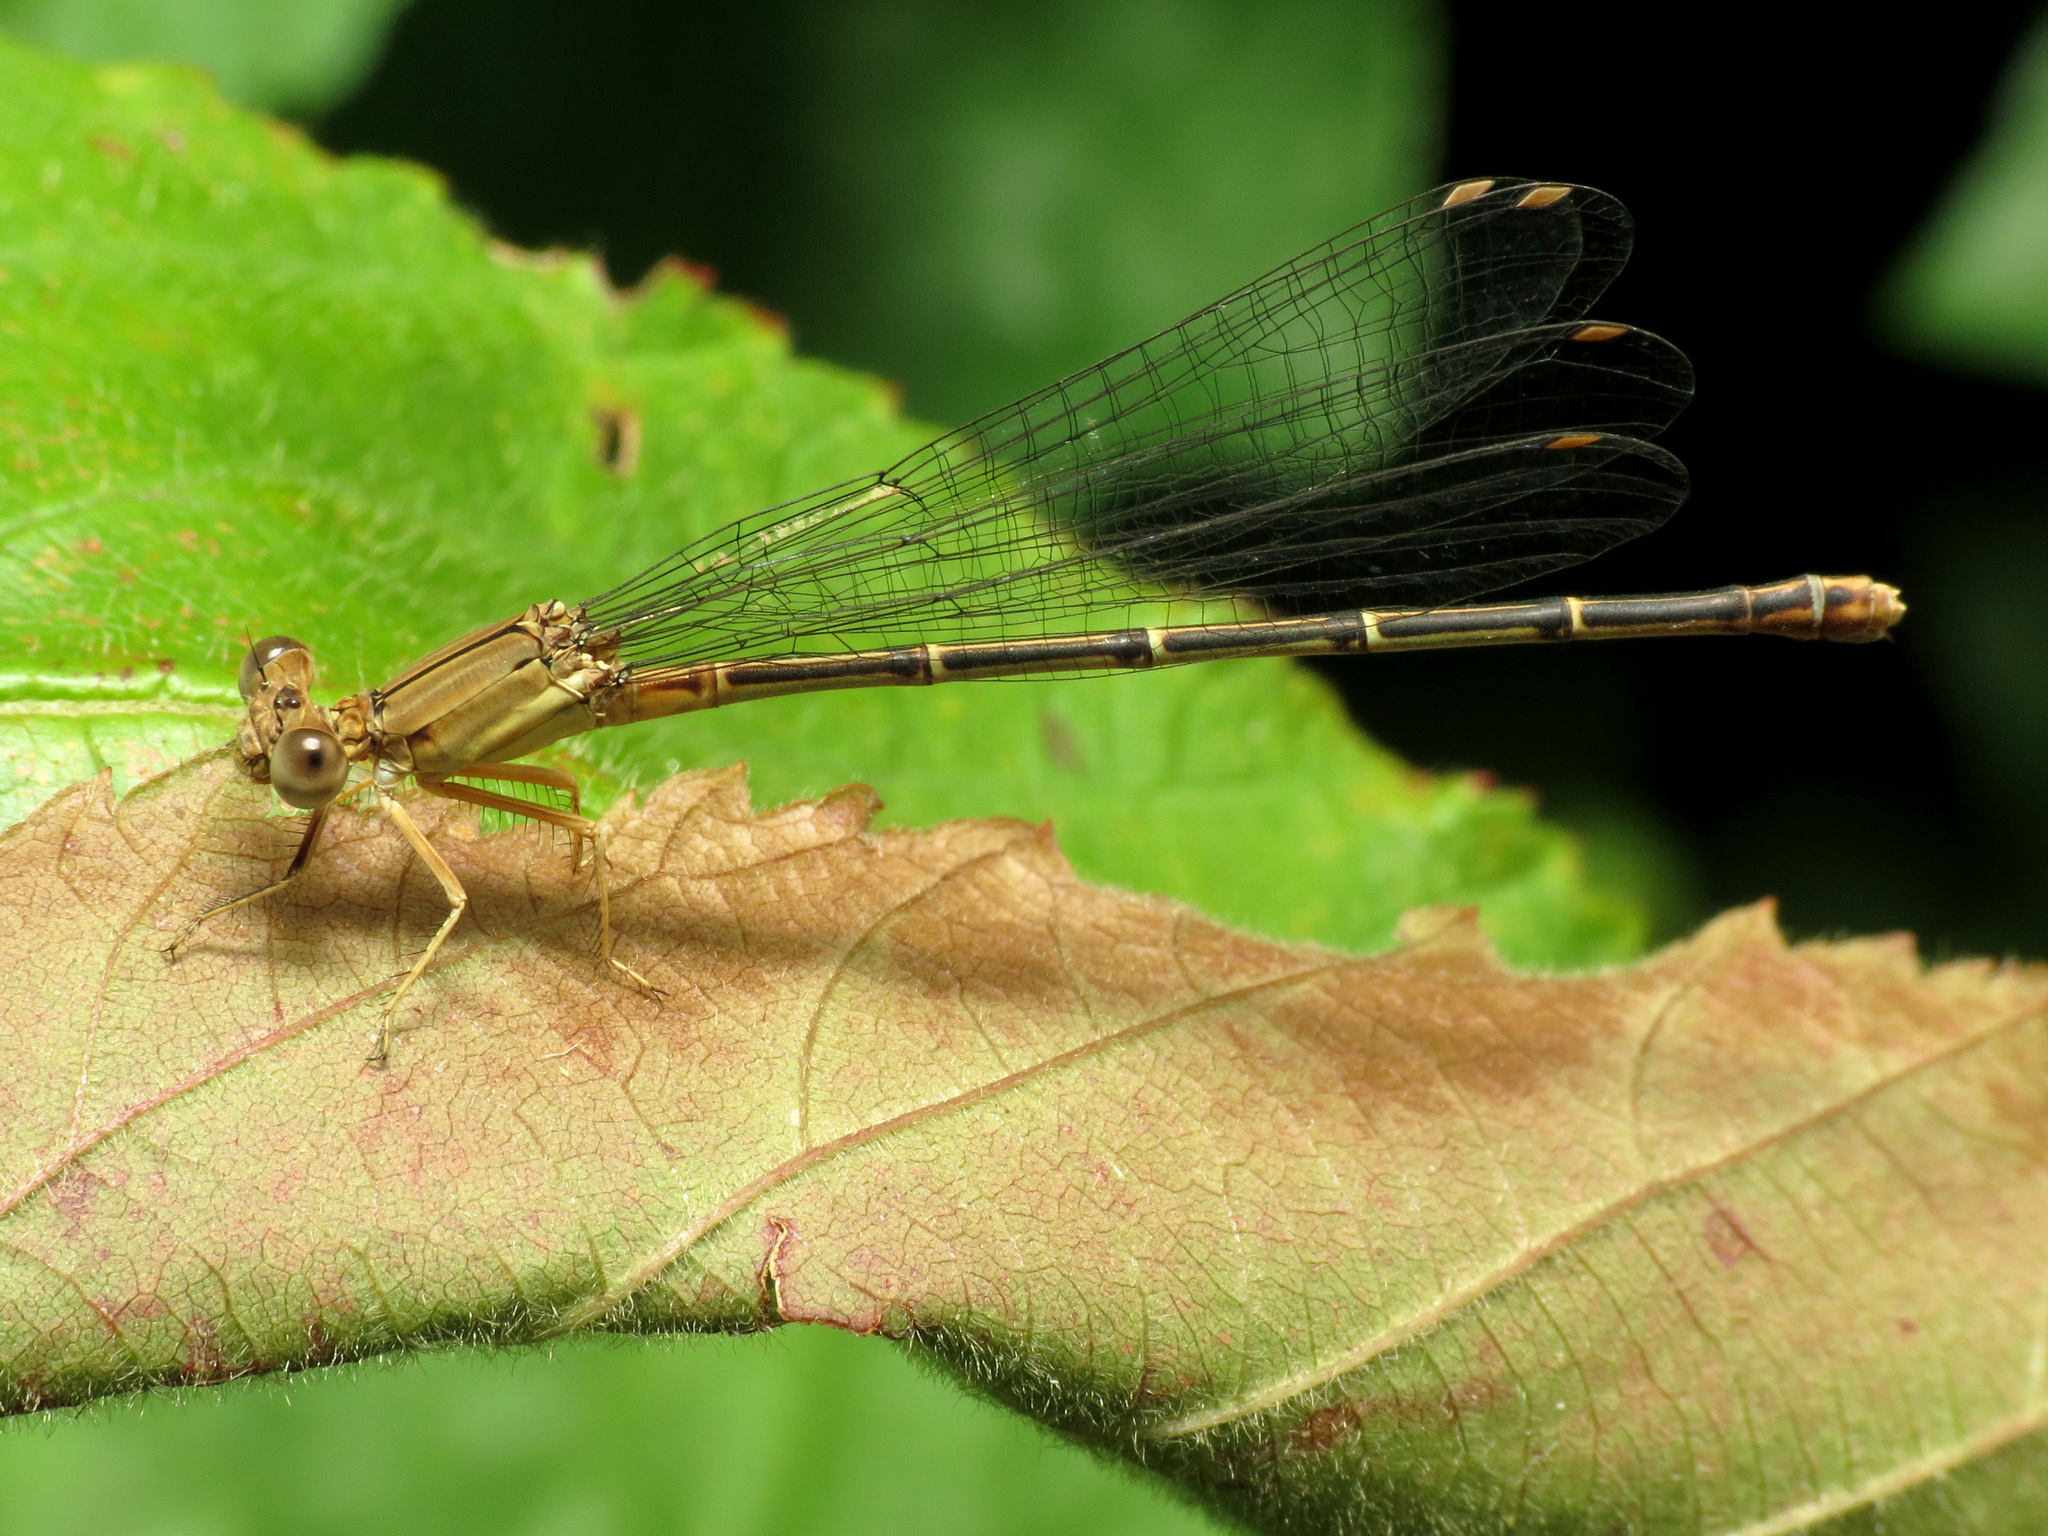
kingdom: Animalia
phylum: Arthropoda
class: Insecta
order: Odonata
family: Coenagrionidae
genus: Argia
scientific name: Argia apicalis
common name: Blue-fronted dancer
